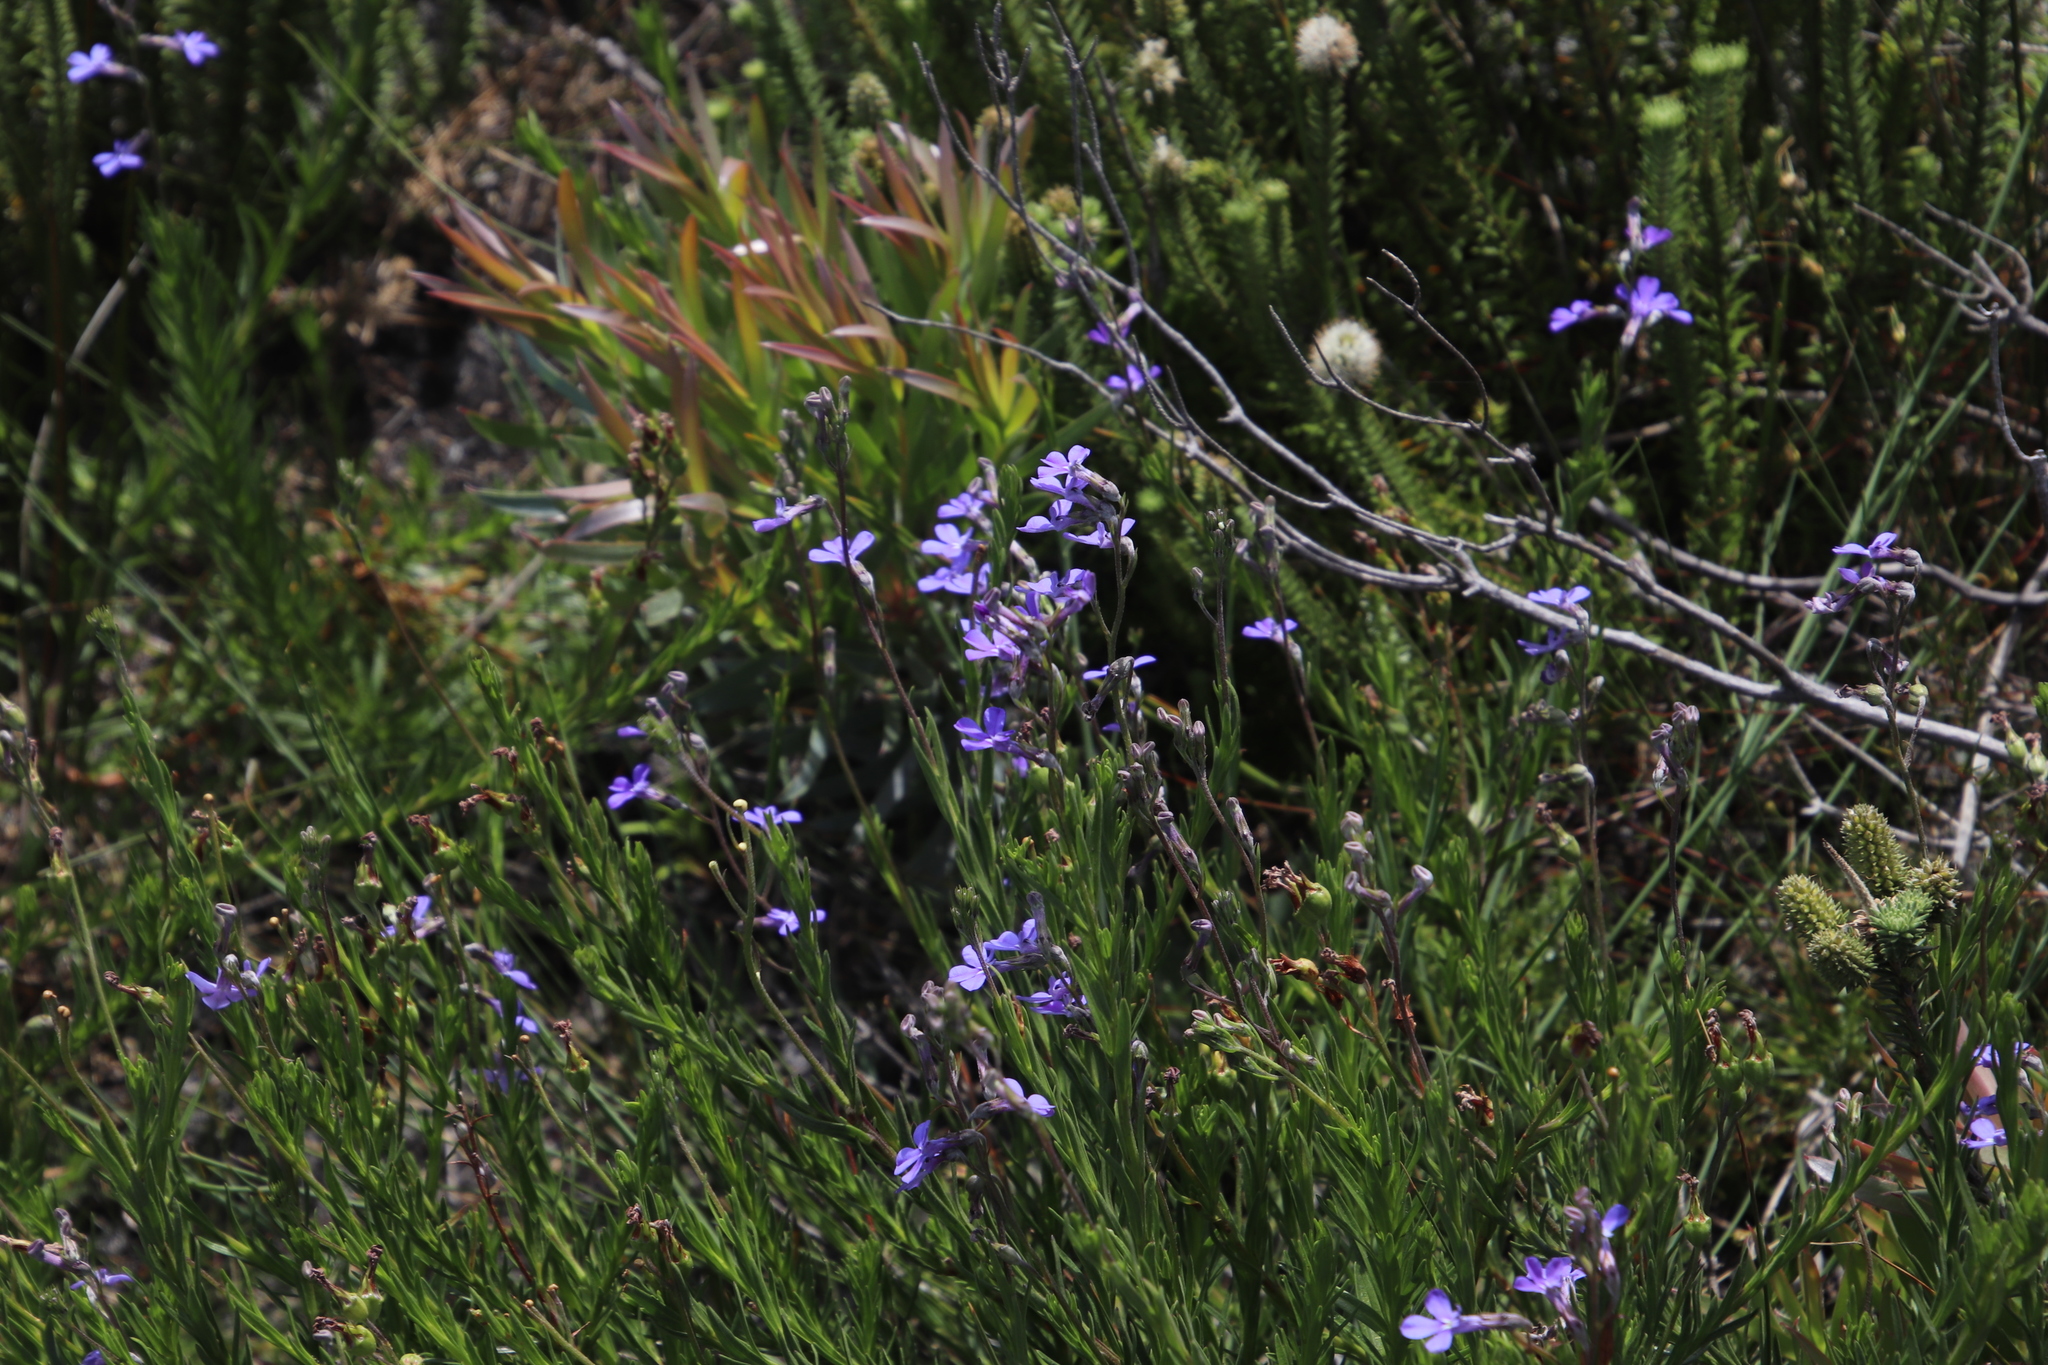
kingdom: Plantae
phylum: Tracheophyta
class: Magnoliopsida
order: Asterales
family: Campanulaceae
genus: Lobelia
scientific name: Lobelia pinifolia
